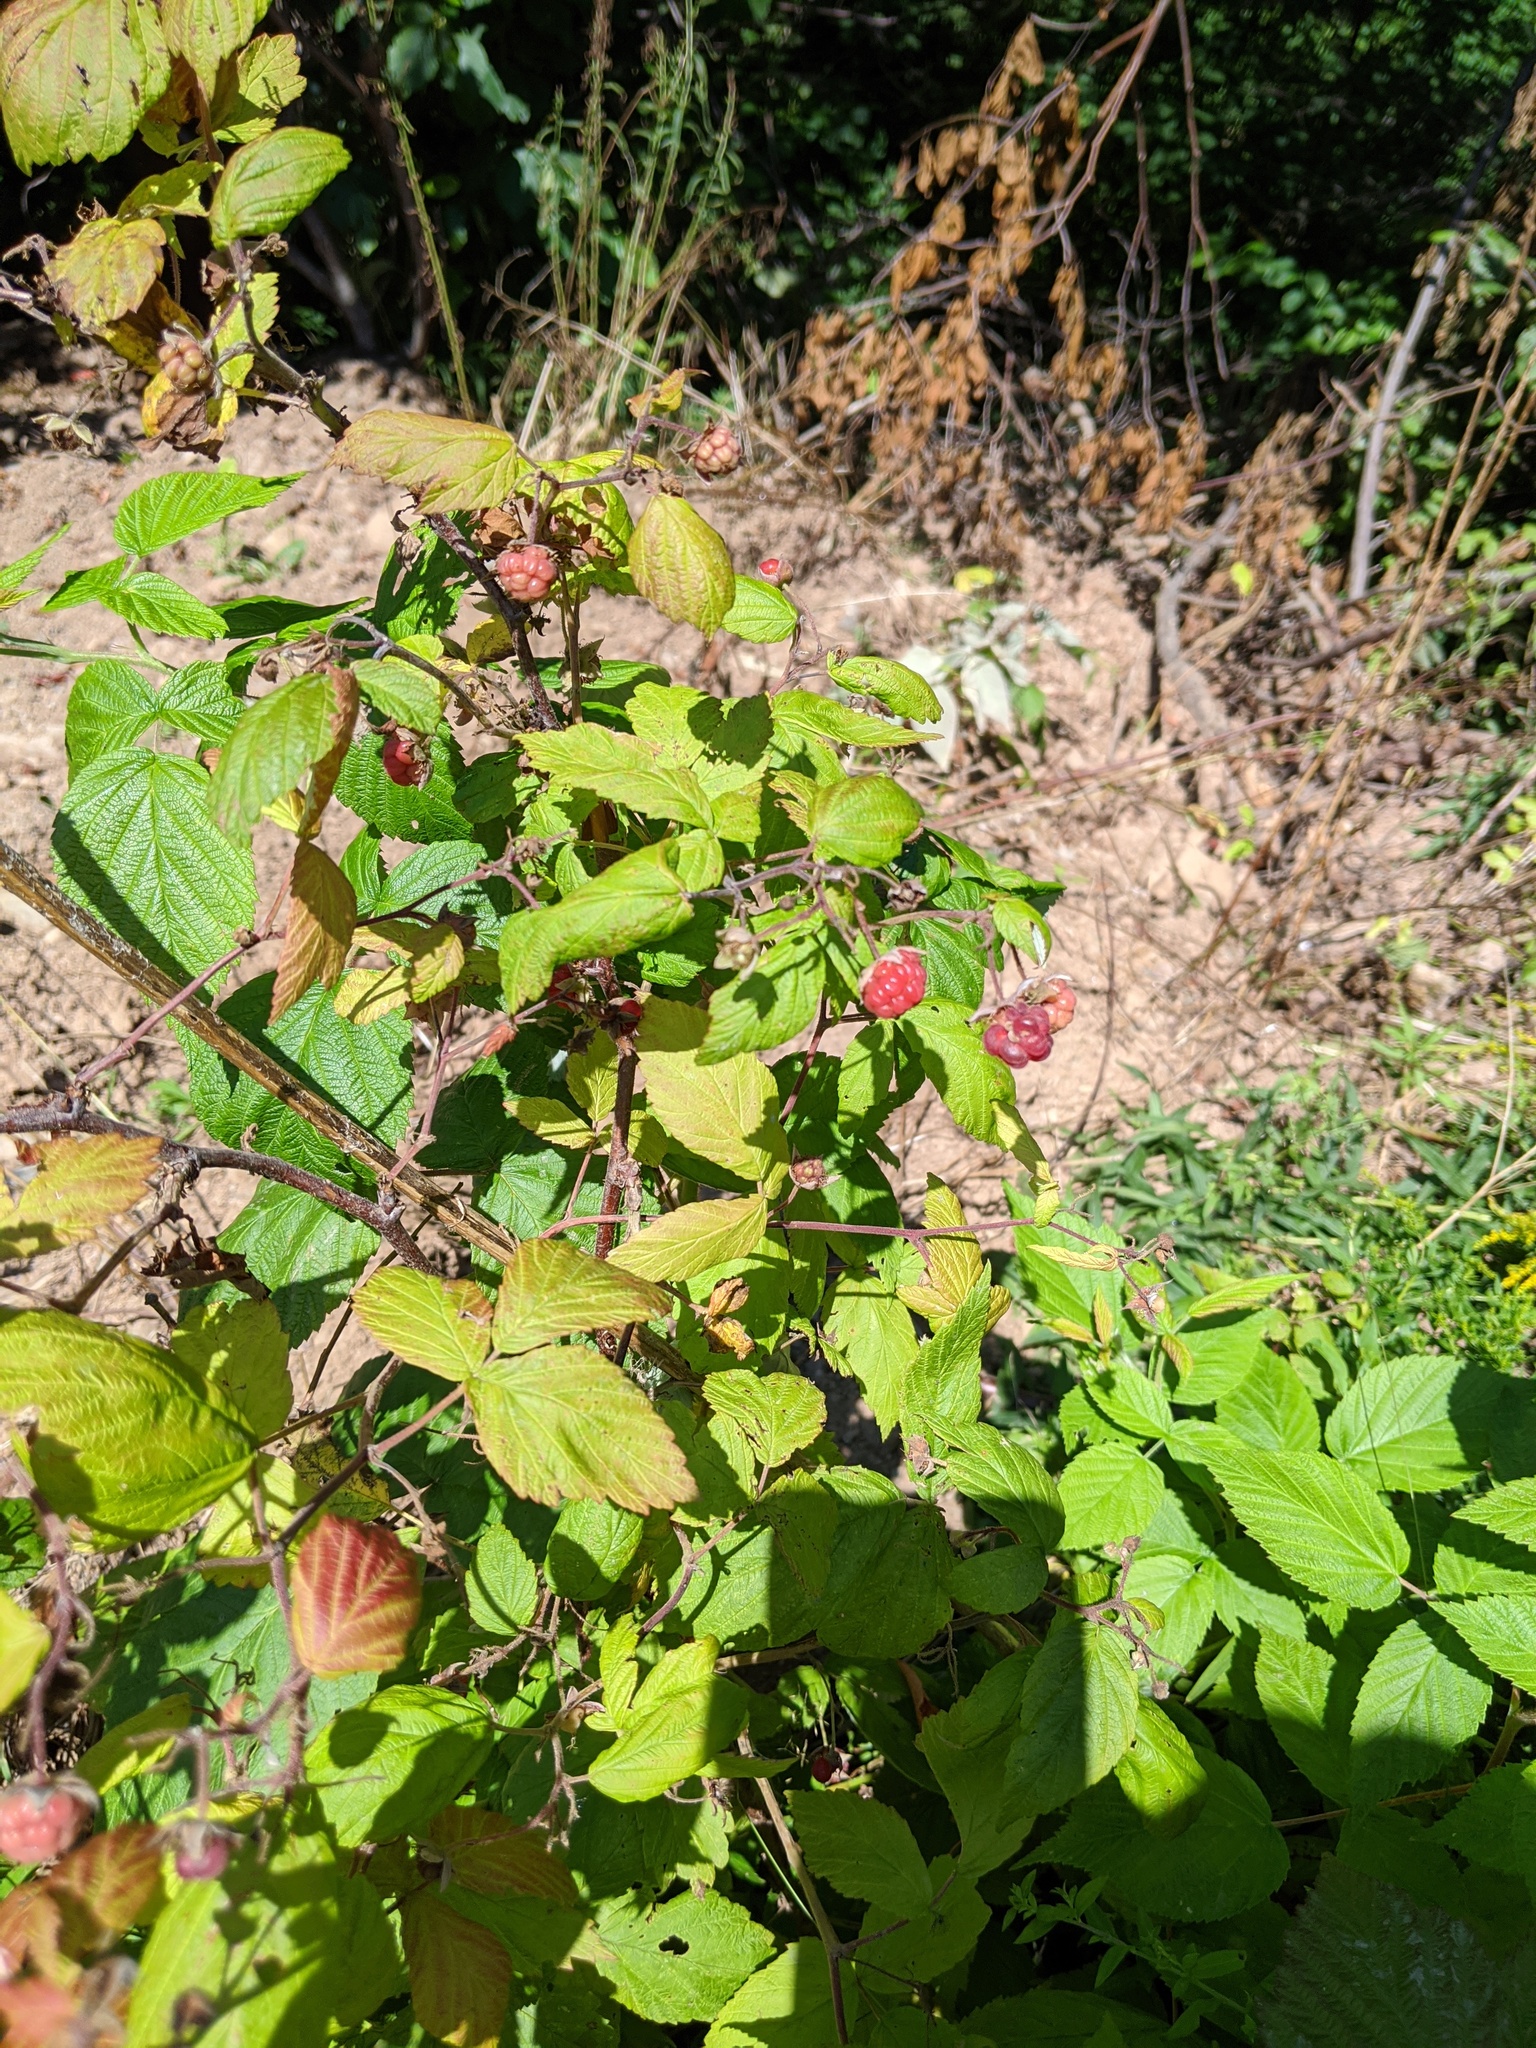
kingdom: Plantae
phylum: Tracheophyta
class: Magnoliopsida
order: Rosales
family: Rosaceae
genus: Rubus
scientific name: Rubus idaeus
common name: Raspberry
